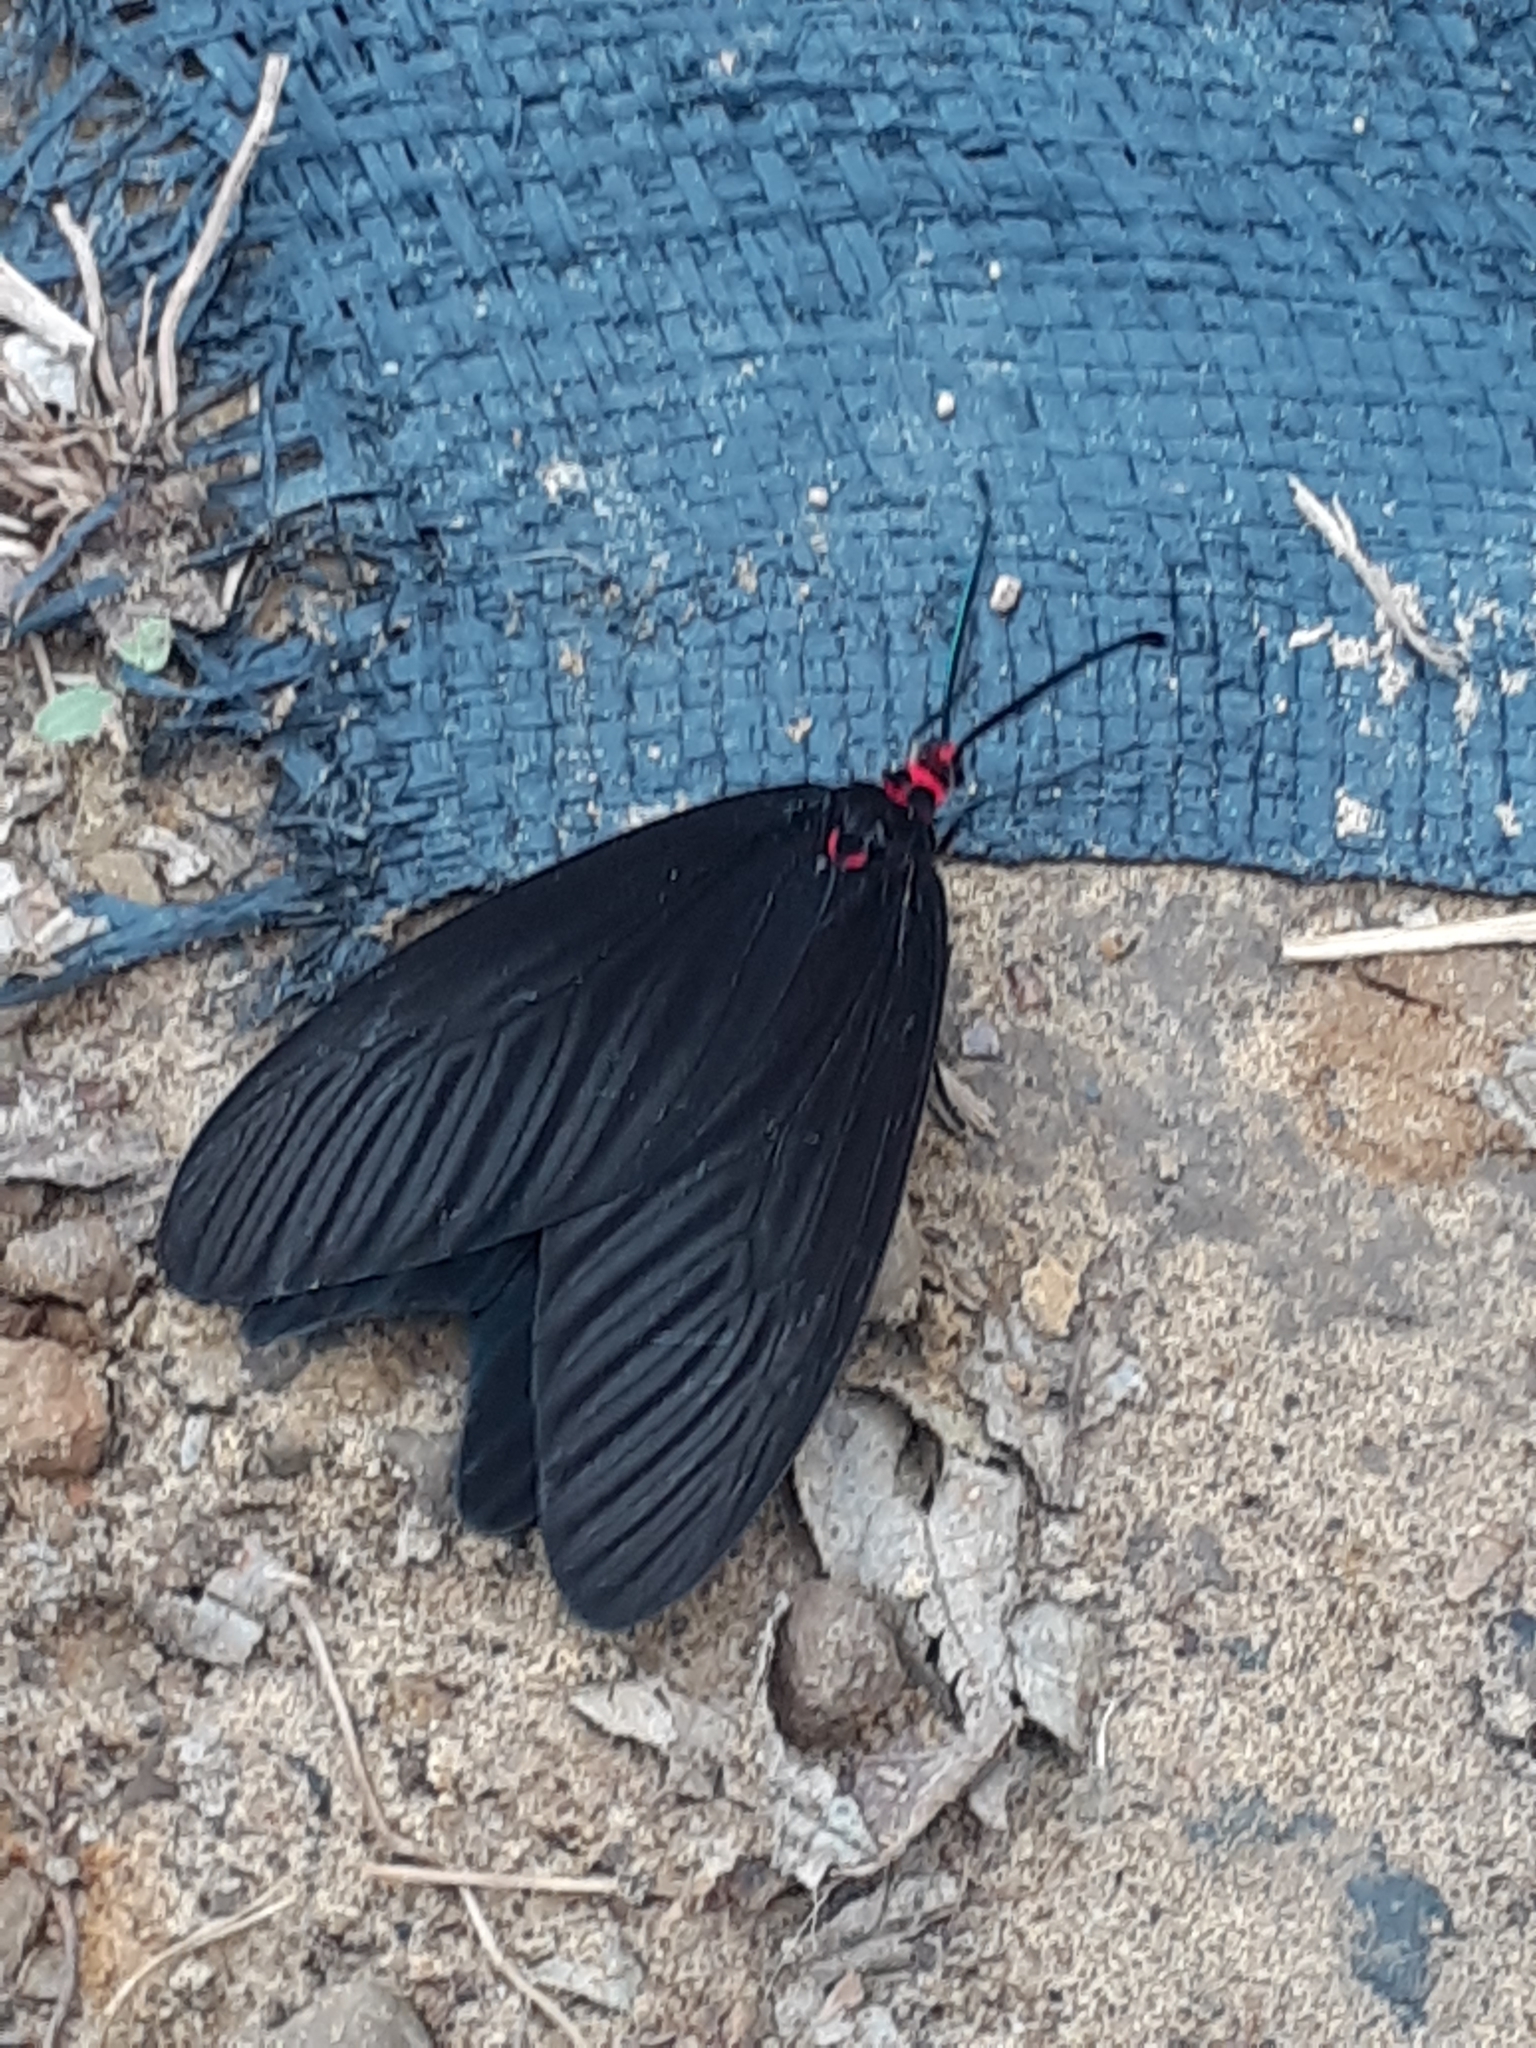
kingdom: Animalia
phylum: Arthropoda
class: Insecta
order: Lepidoptera
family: Zygaenidae
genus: Histia
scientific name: Histia flabellicornis
